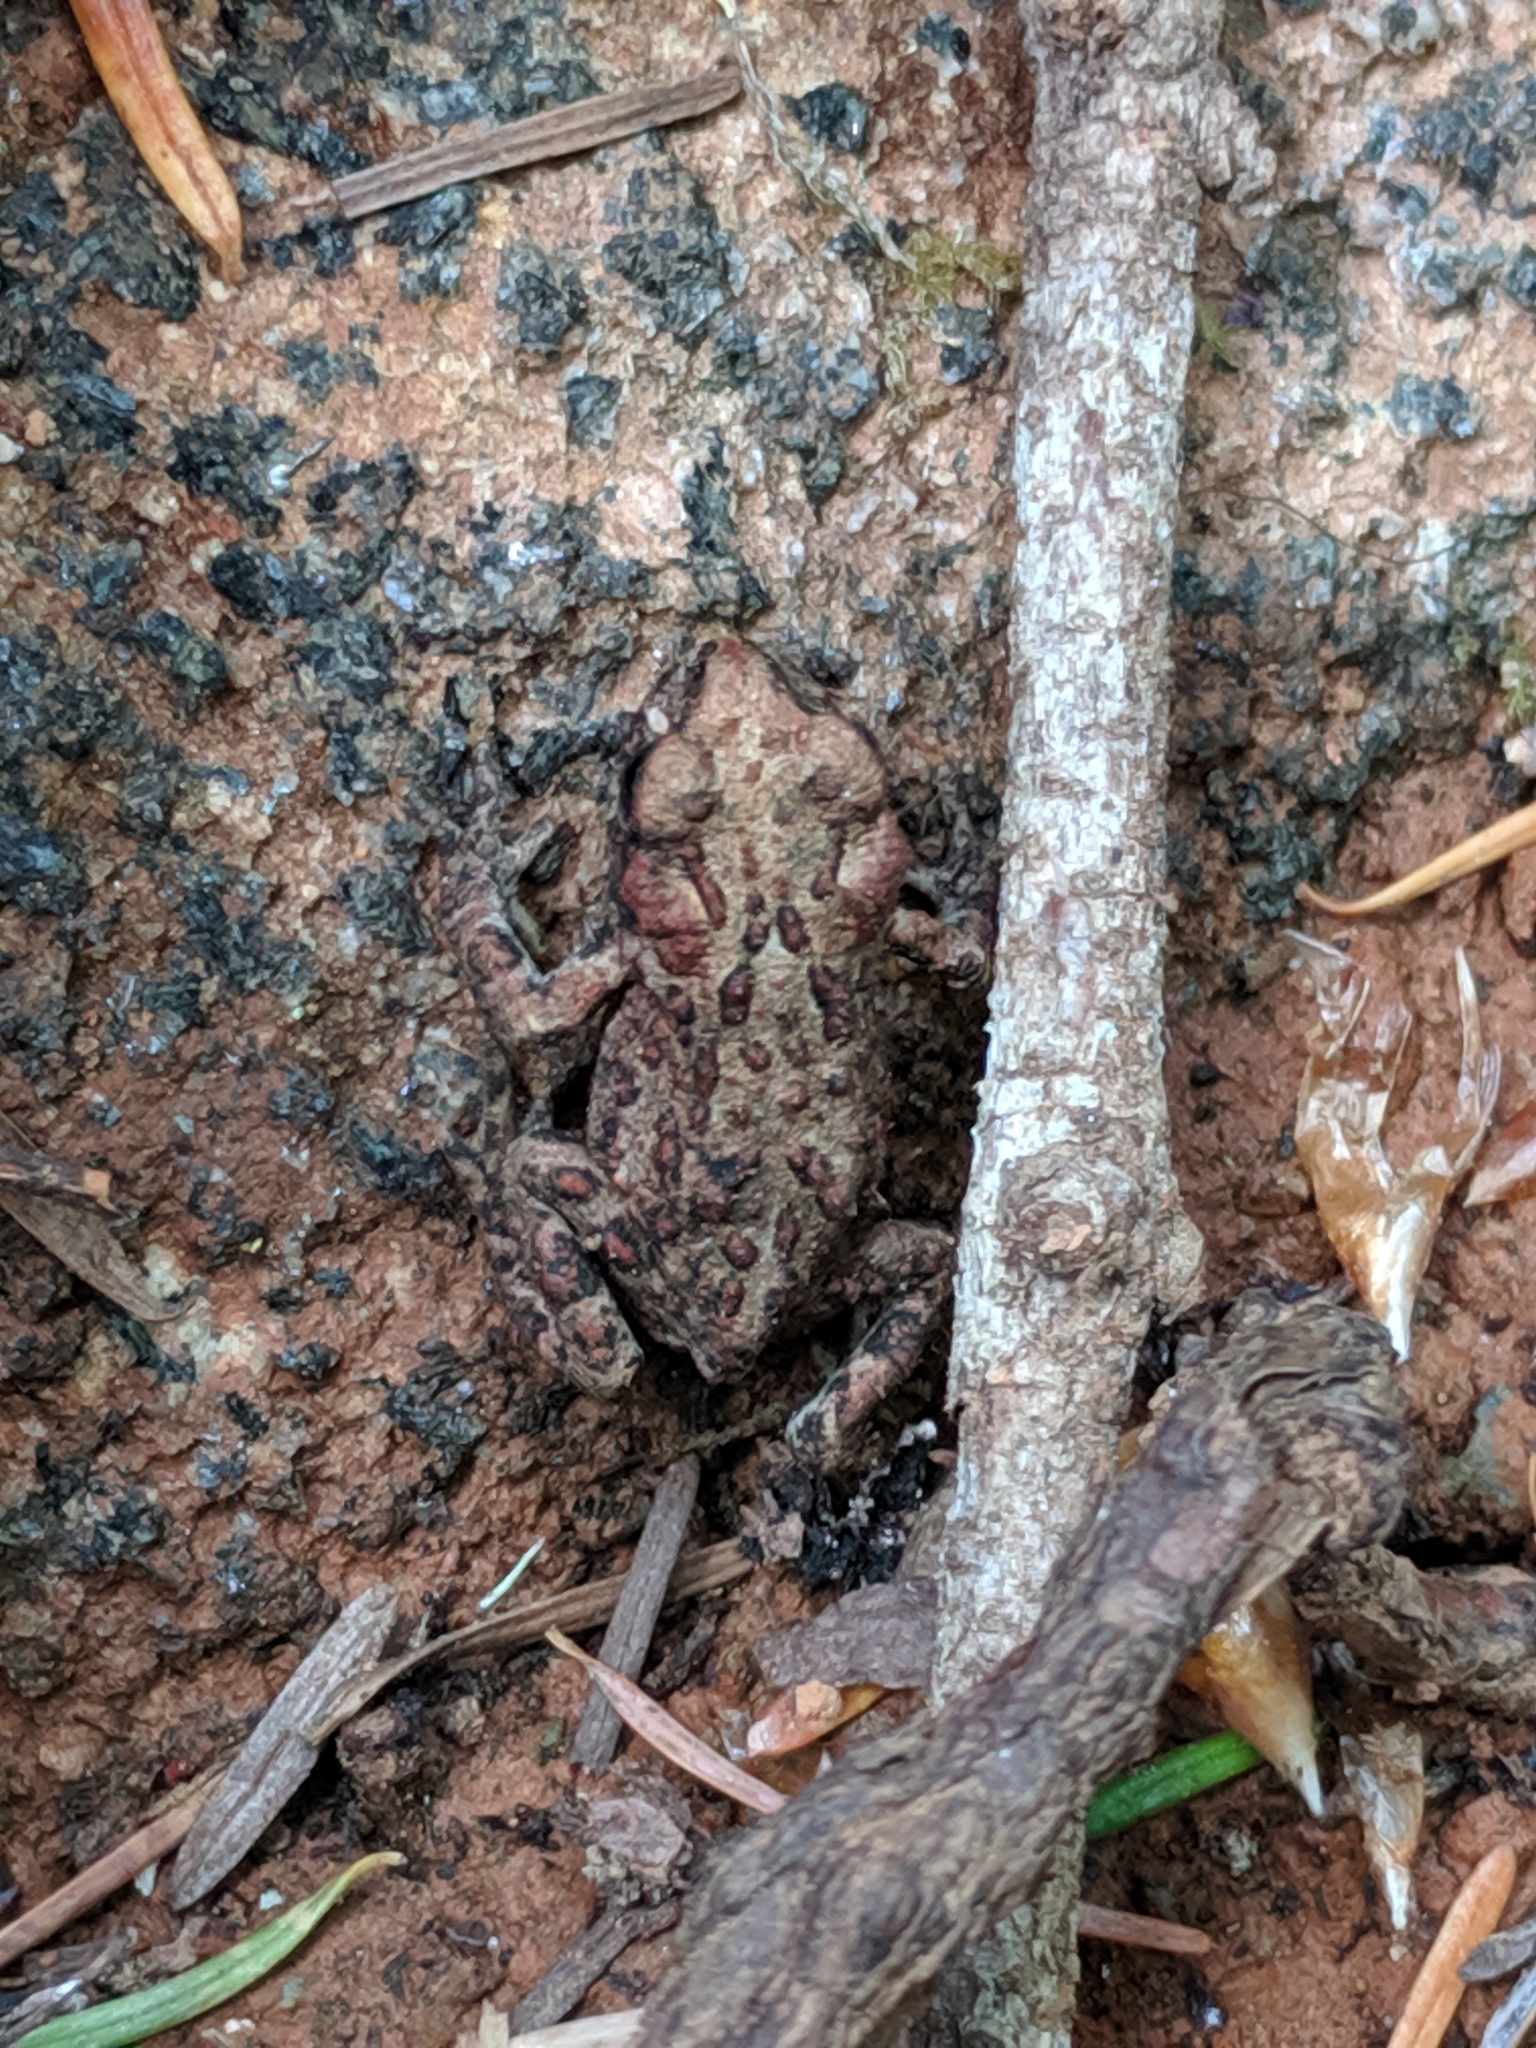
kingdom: Animalia
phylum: Chordata
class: Amphibia
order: Anura
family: Bufonidae
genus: Anaxyrus
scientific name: Anaxyrus boreas
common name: Western toad
